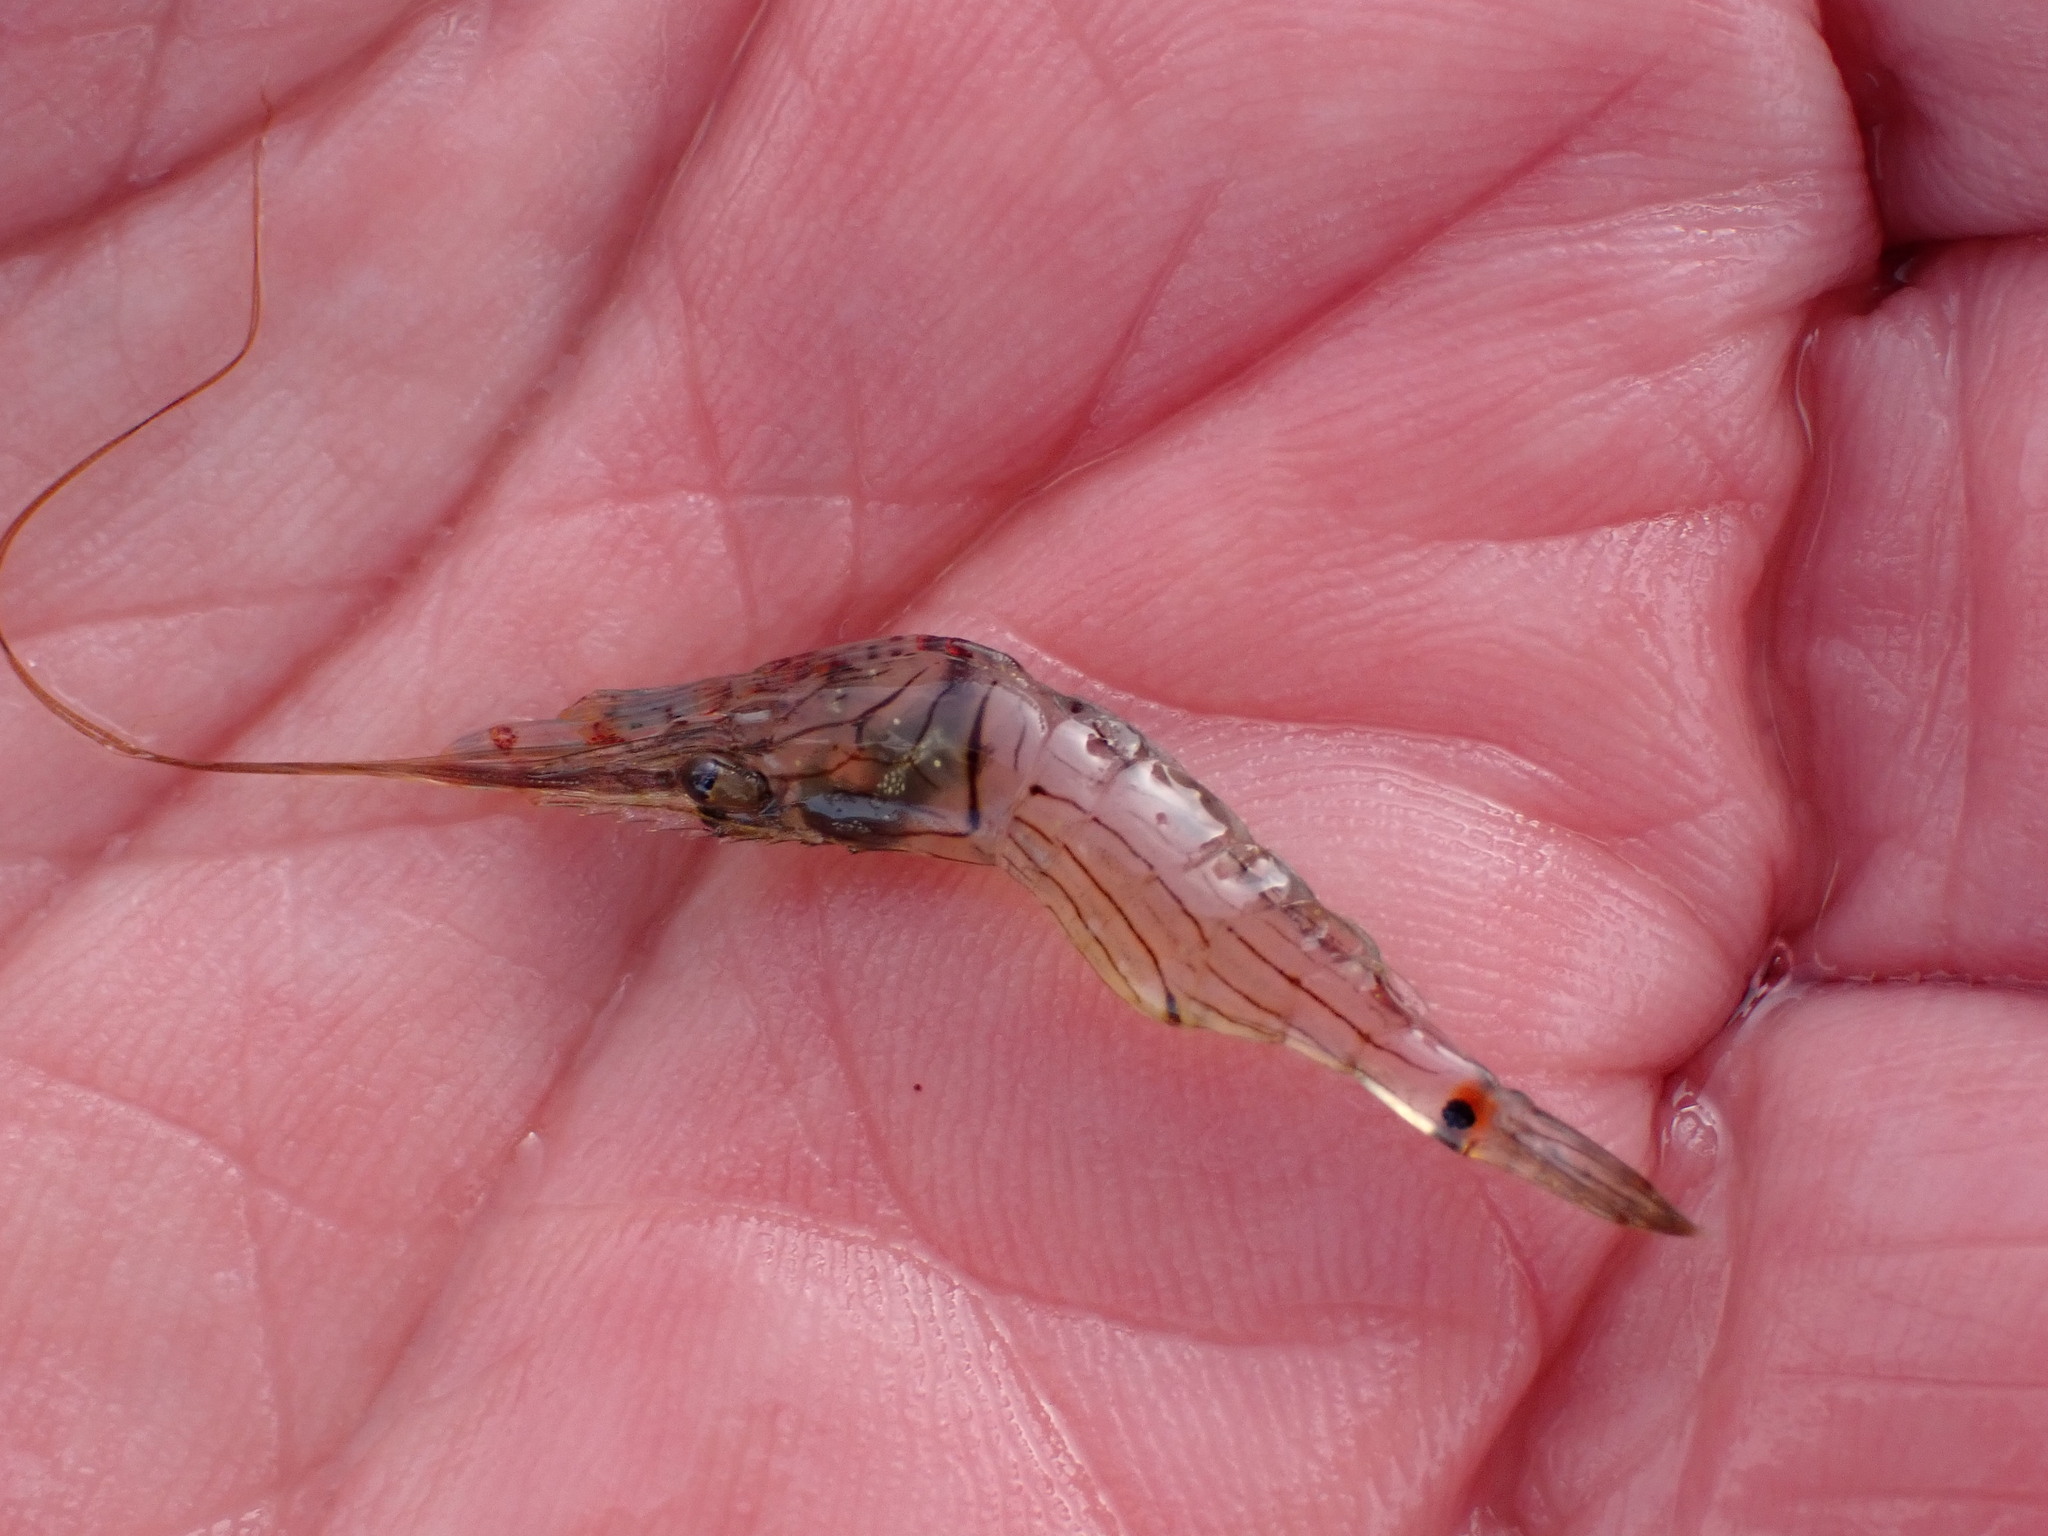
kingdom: Animalia
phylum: Arthropoda
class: Malacostraca
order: Decapoda
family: Palaemonidae
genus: Palaemon
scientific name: Palaemon affinis
